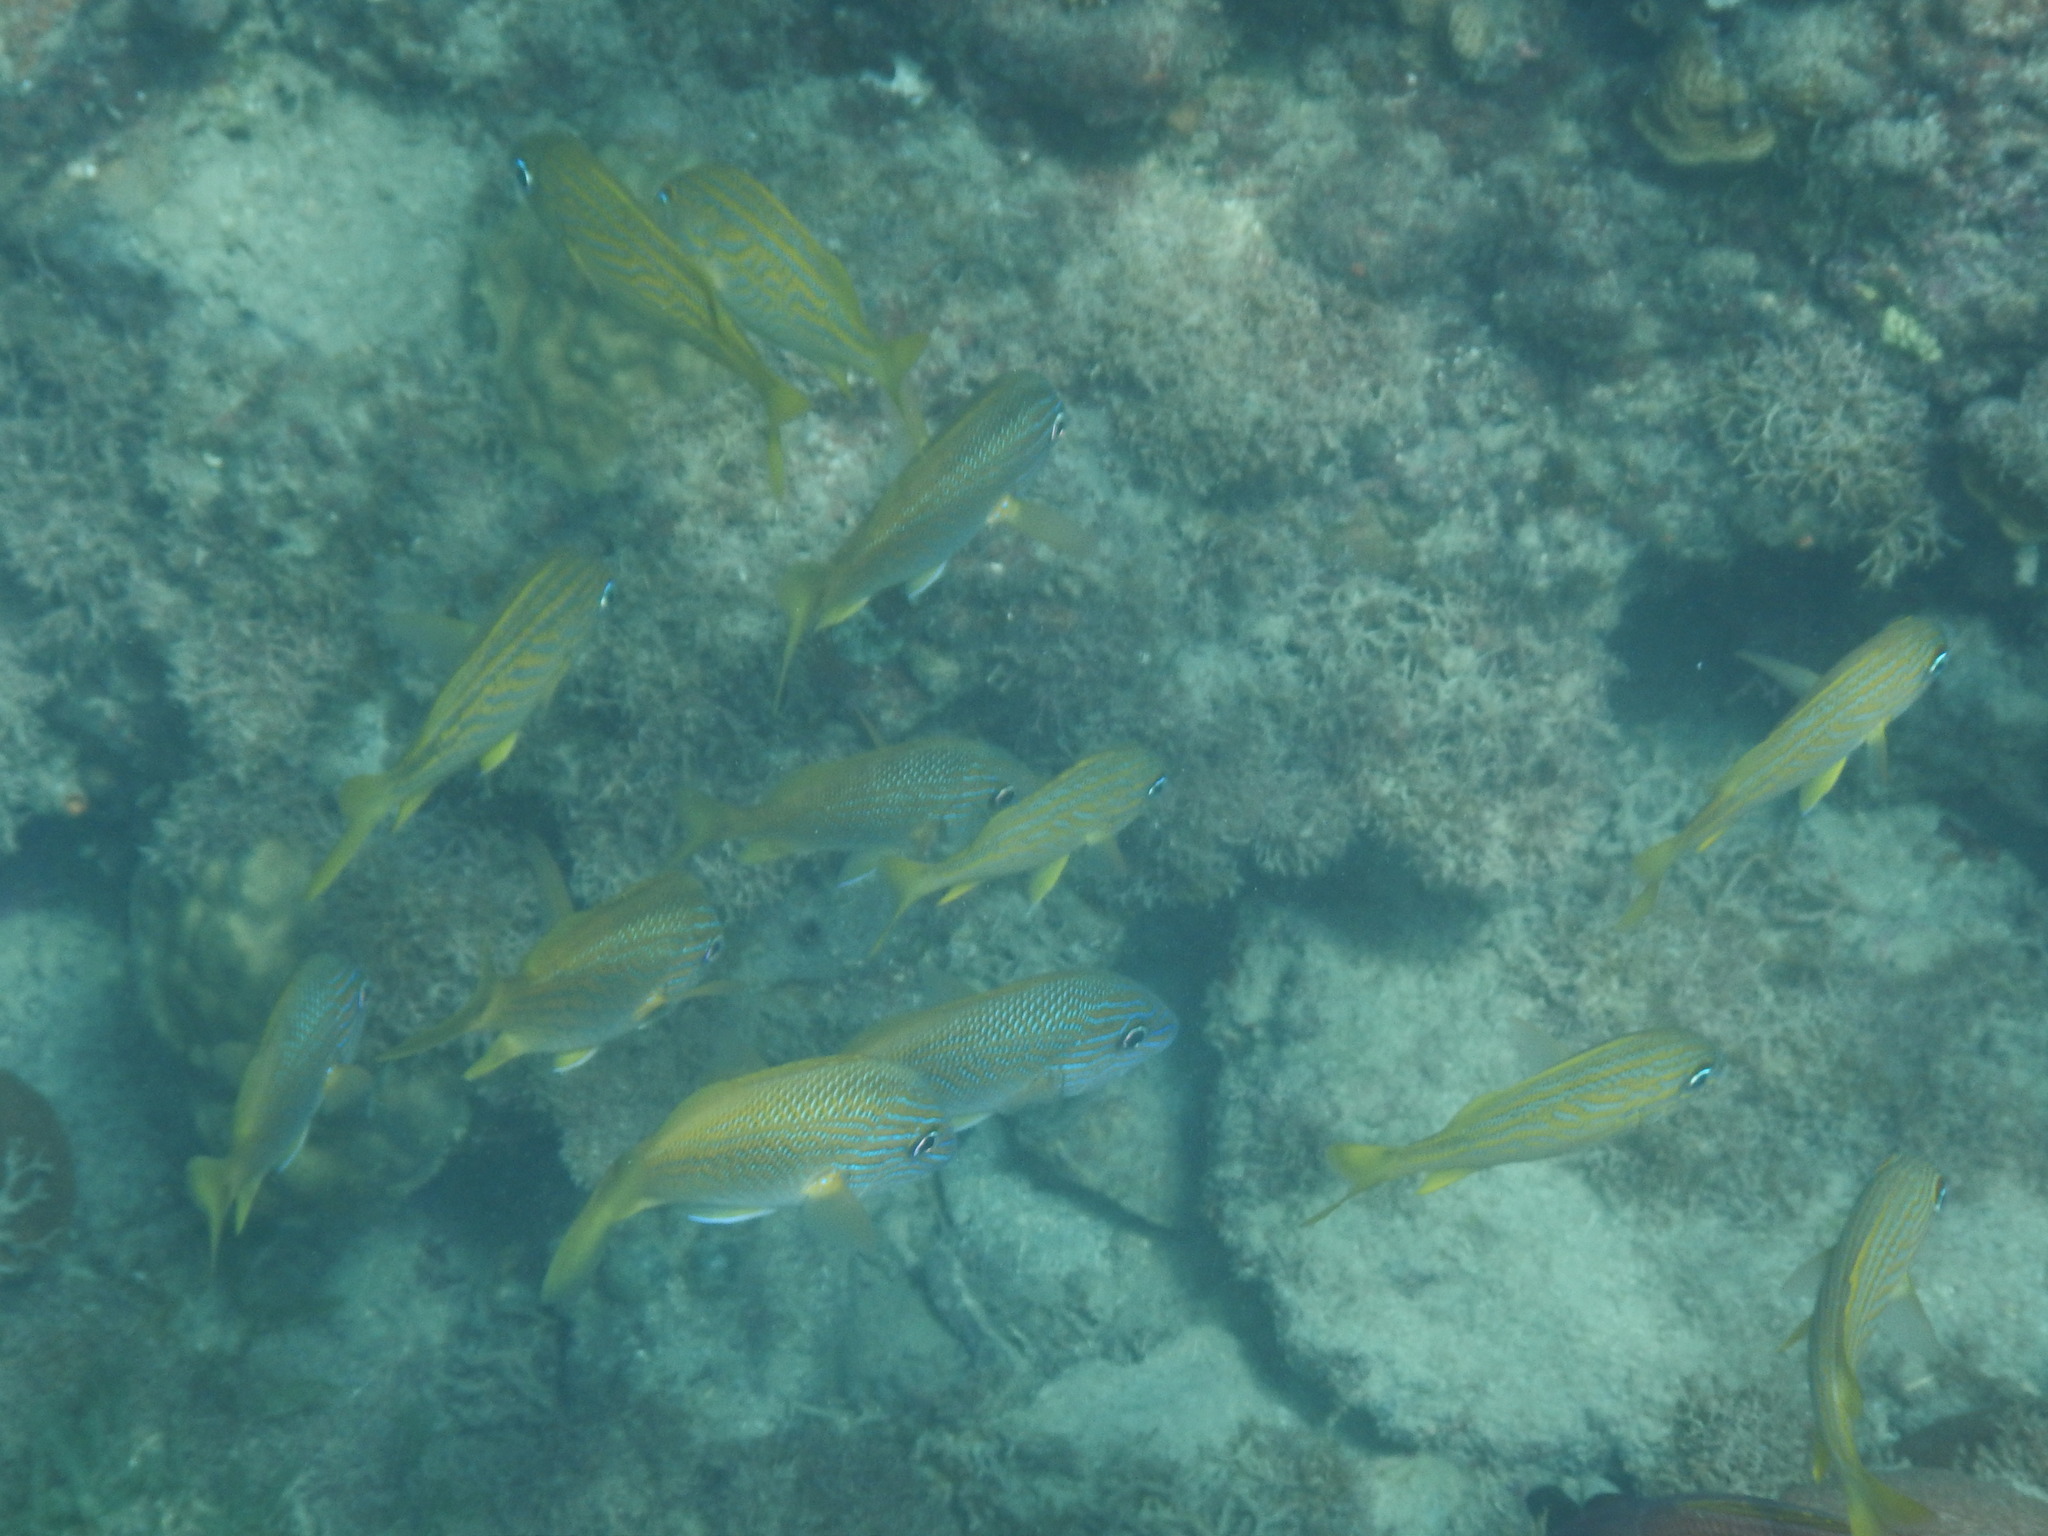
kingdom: Animalia
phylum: Chordata
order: Perciformes
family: Haemulidae
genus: Haemulon
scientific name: Haemulon flavolineatum
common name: French grunt
